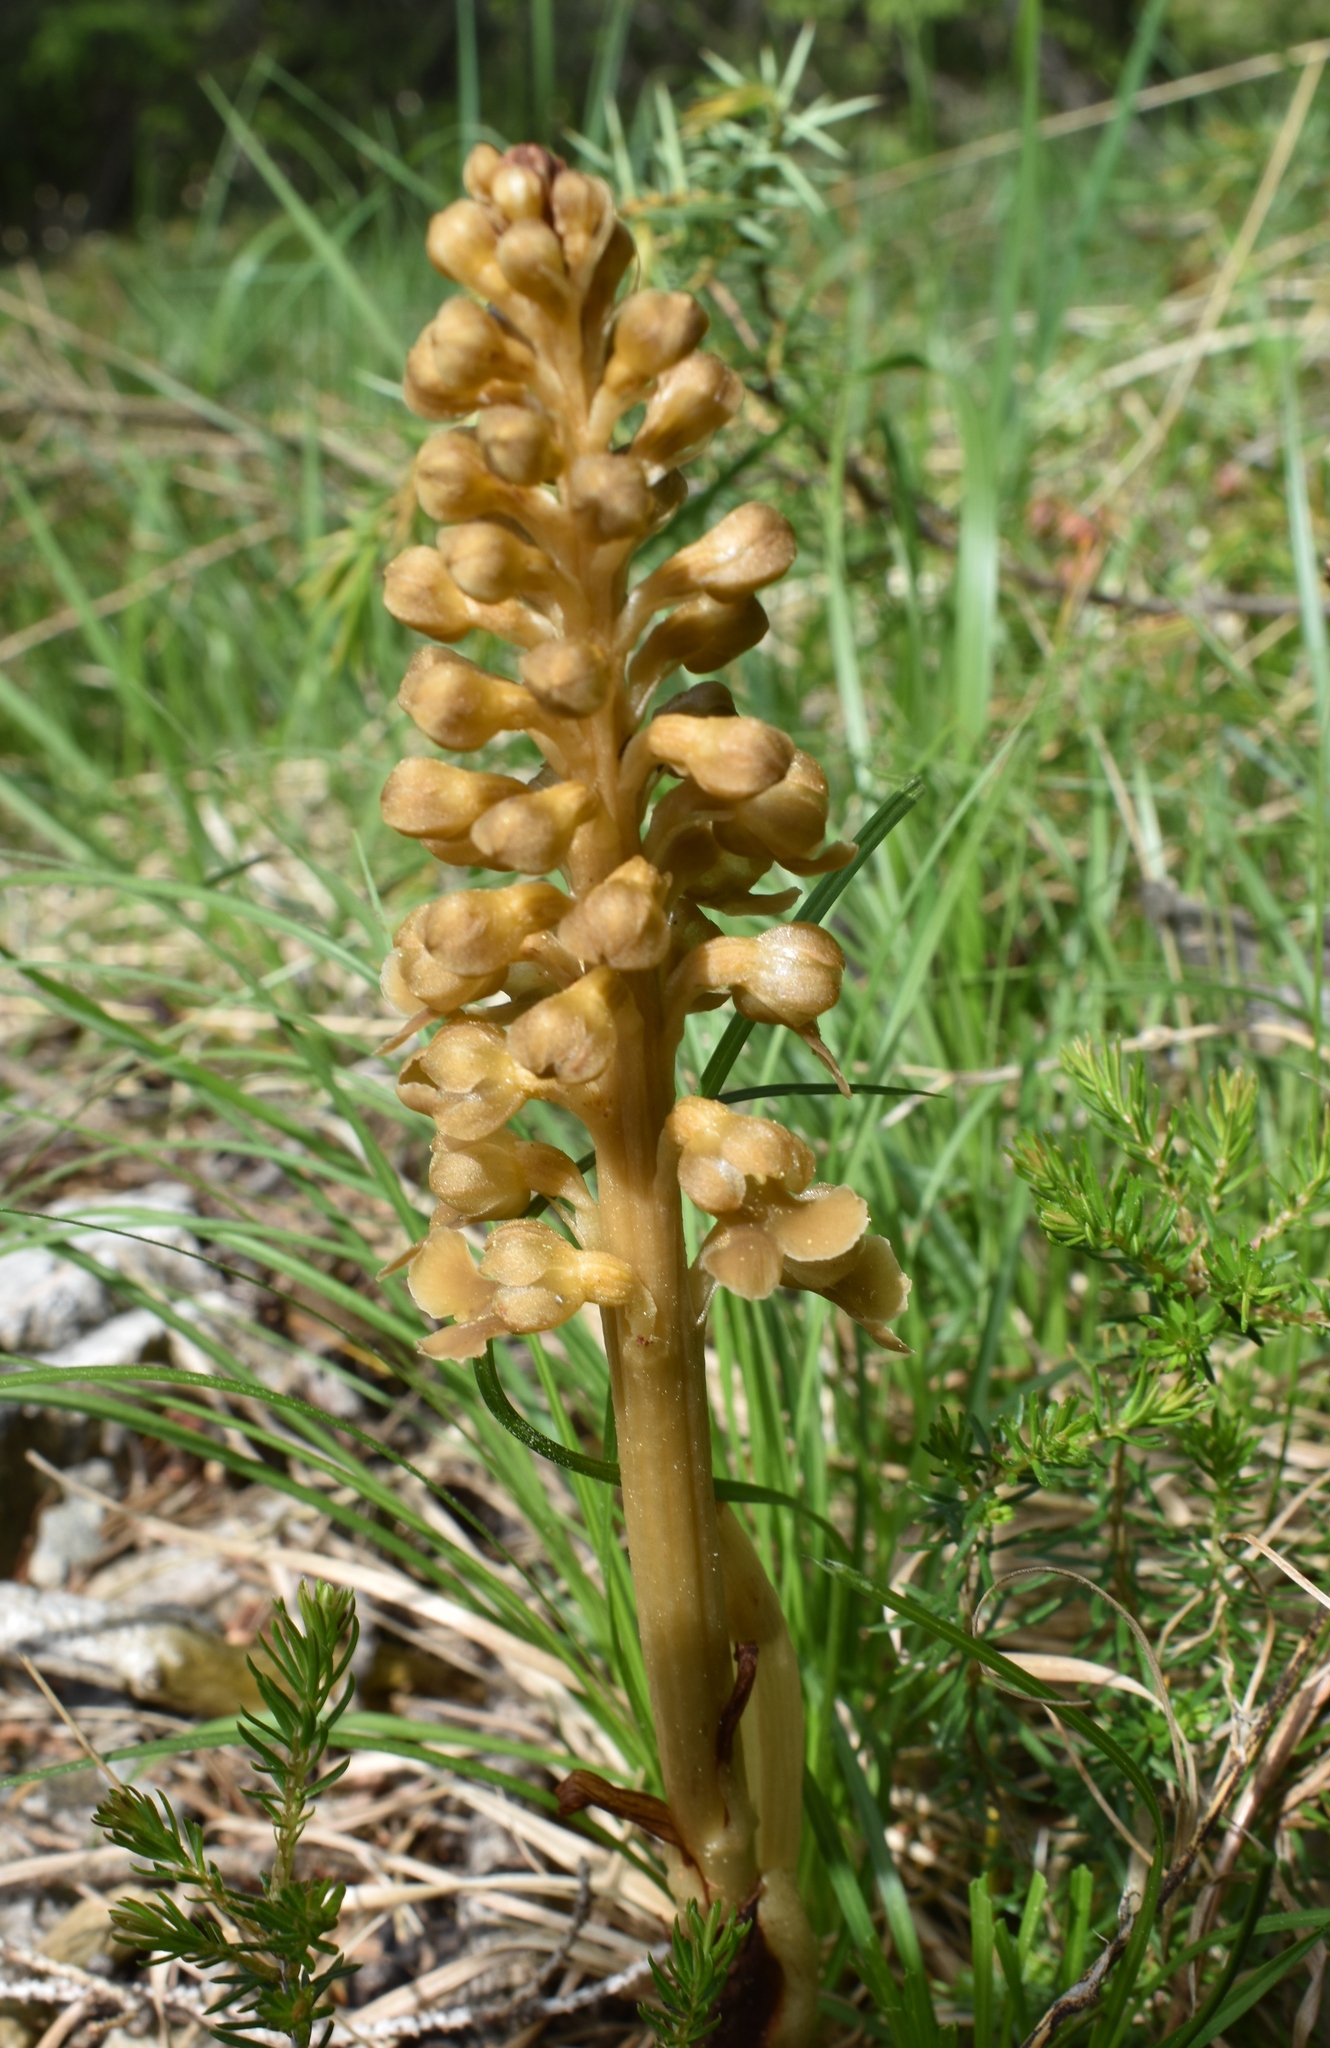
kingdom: Plantae
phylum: Tracheophyta
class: Liliopsida
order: Asparagales
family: Orchidaceae
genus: Neottia
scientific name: Neottia nidus-avis
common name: Bird's-nest orchid
